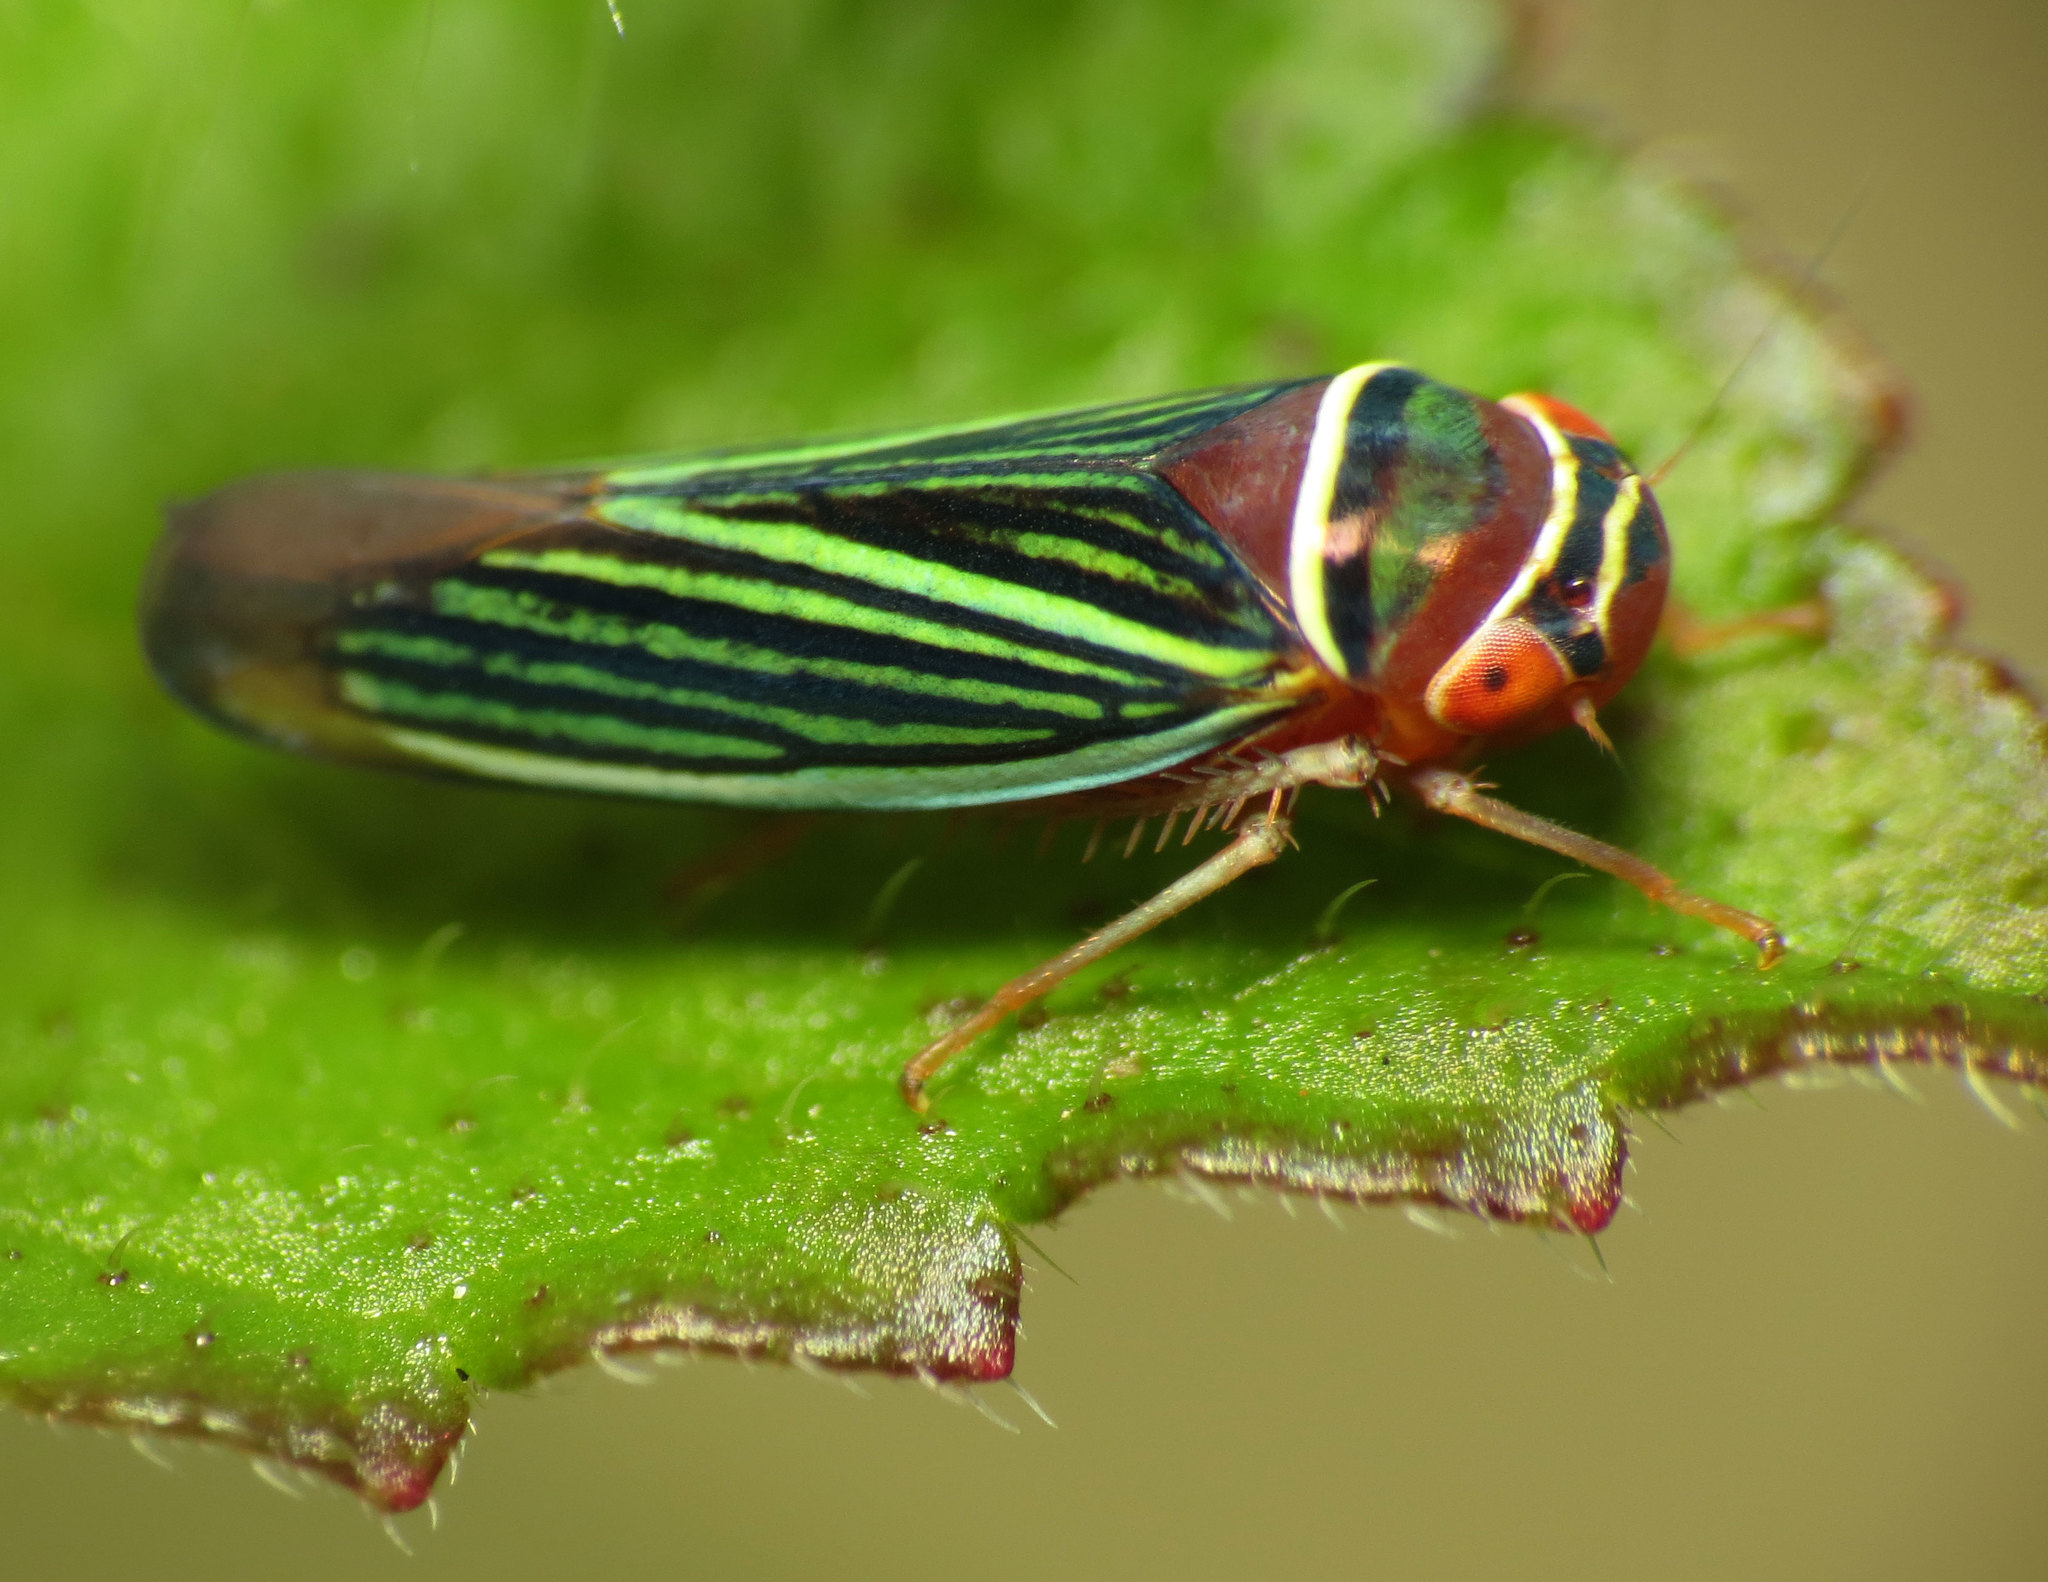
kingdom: Animalia
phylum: Arthropoda
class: Insecta
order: Hemiptera
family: Cicadellidae
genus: Tylozygus
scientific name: Tylozygus fuscolineellus
